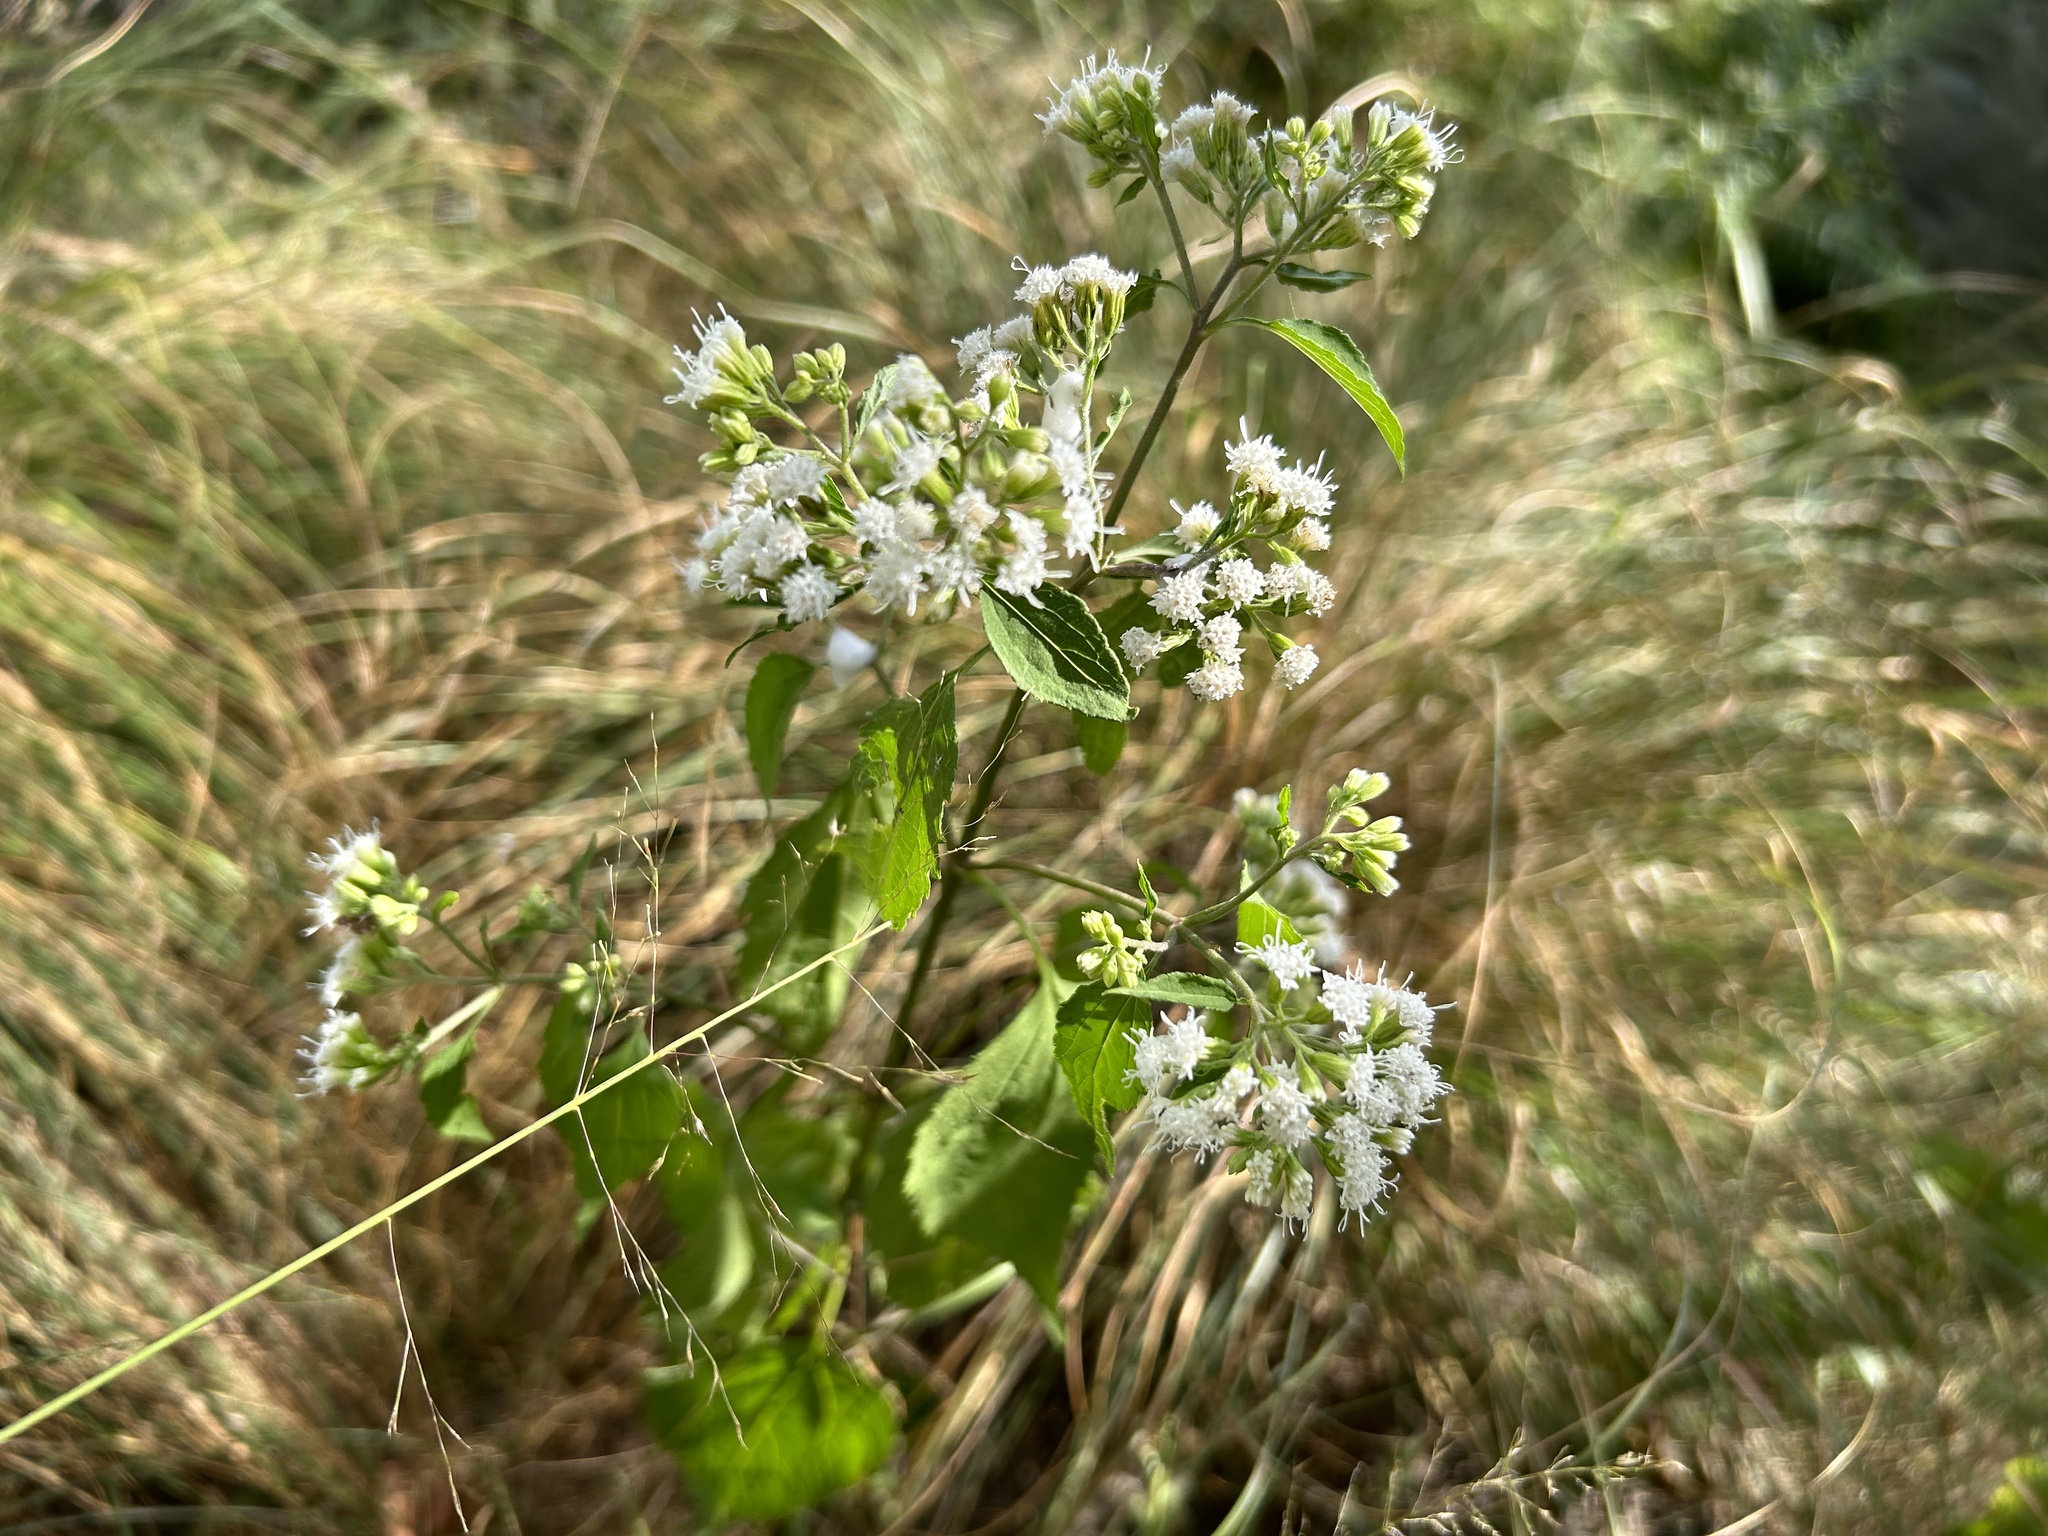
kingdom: Plantae
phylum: Tracheophyta
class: Magnoliopsida
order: Asterales
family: Asteraceae
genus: Ageratina
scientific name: Ageratina altissima
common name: White snakeroot
